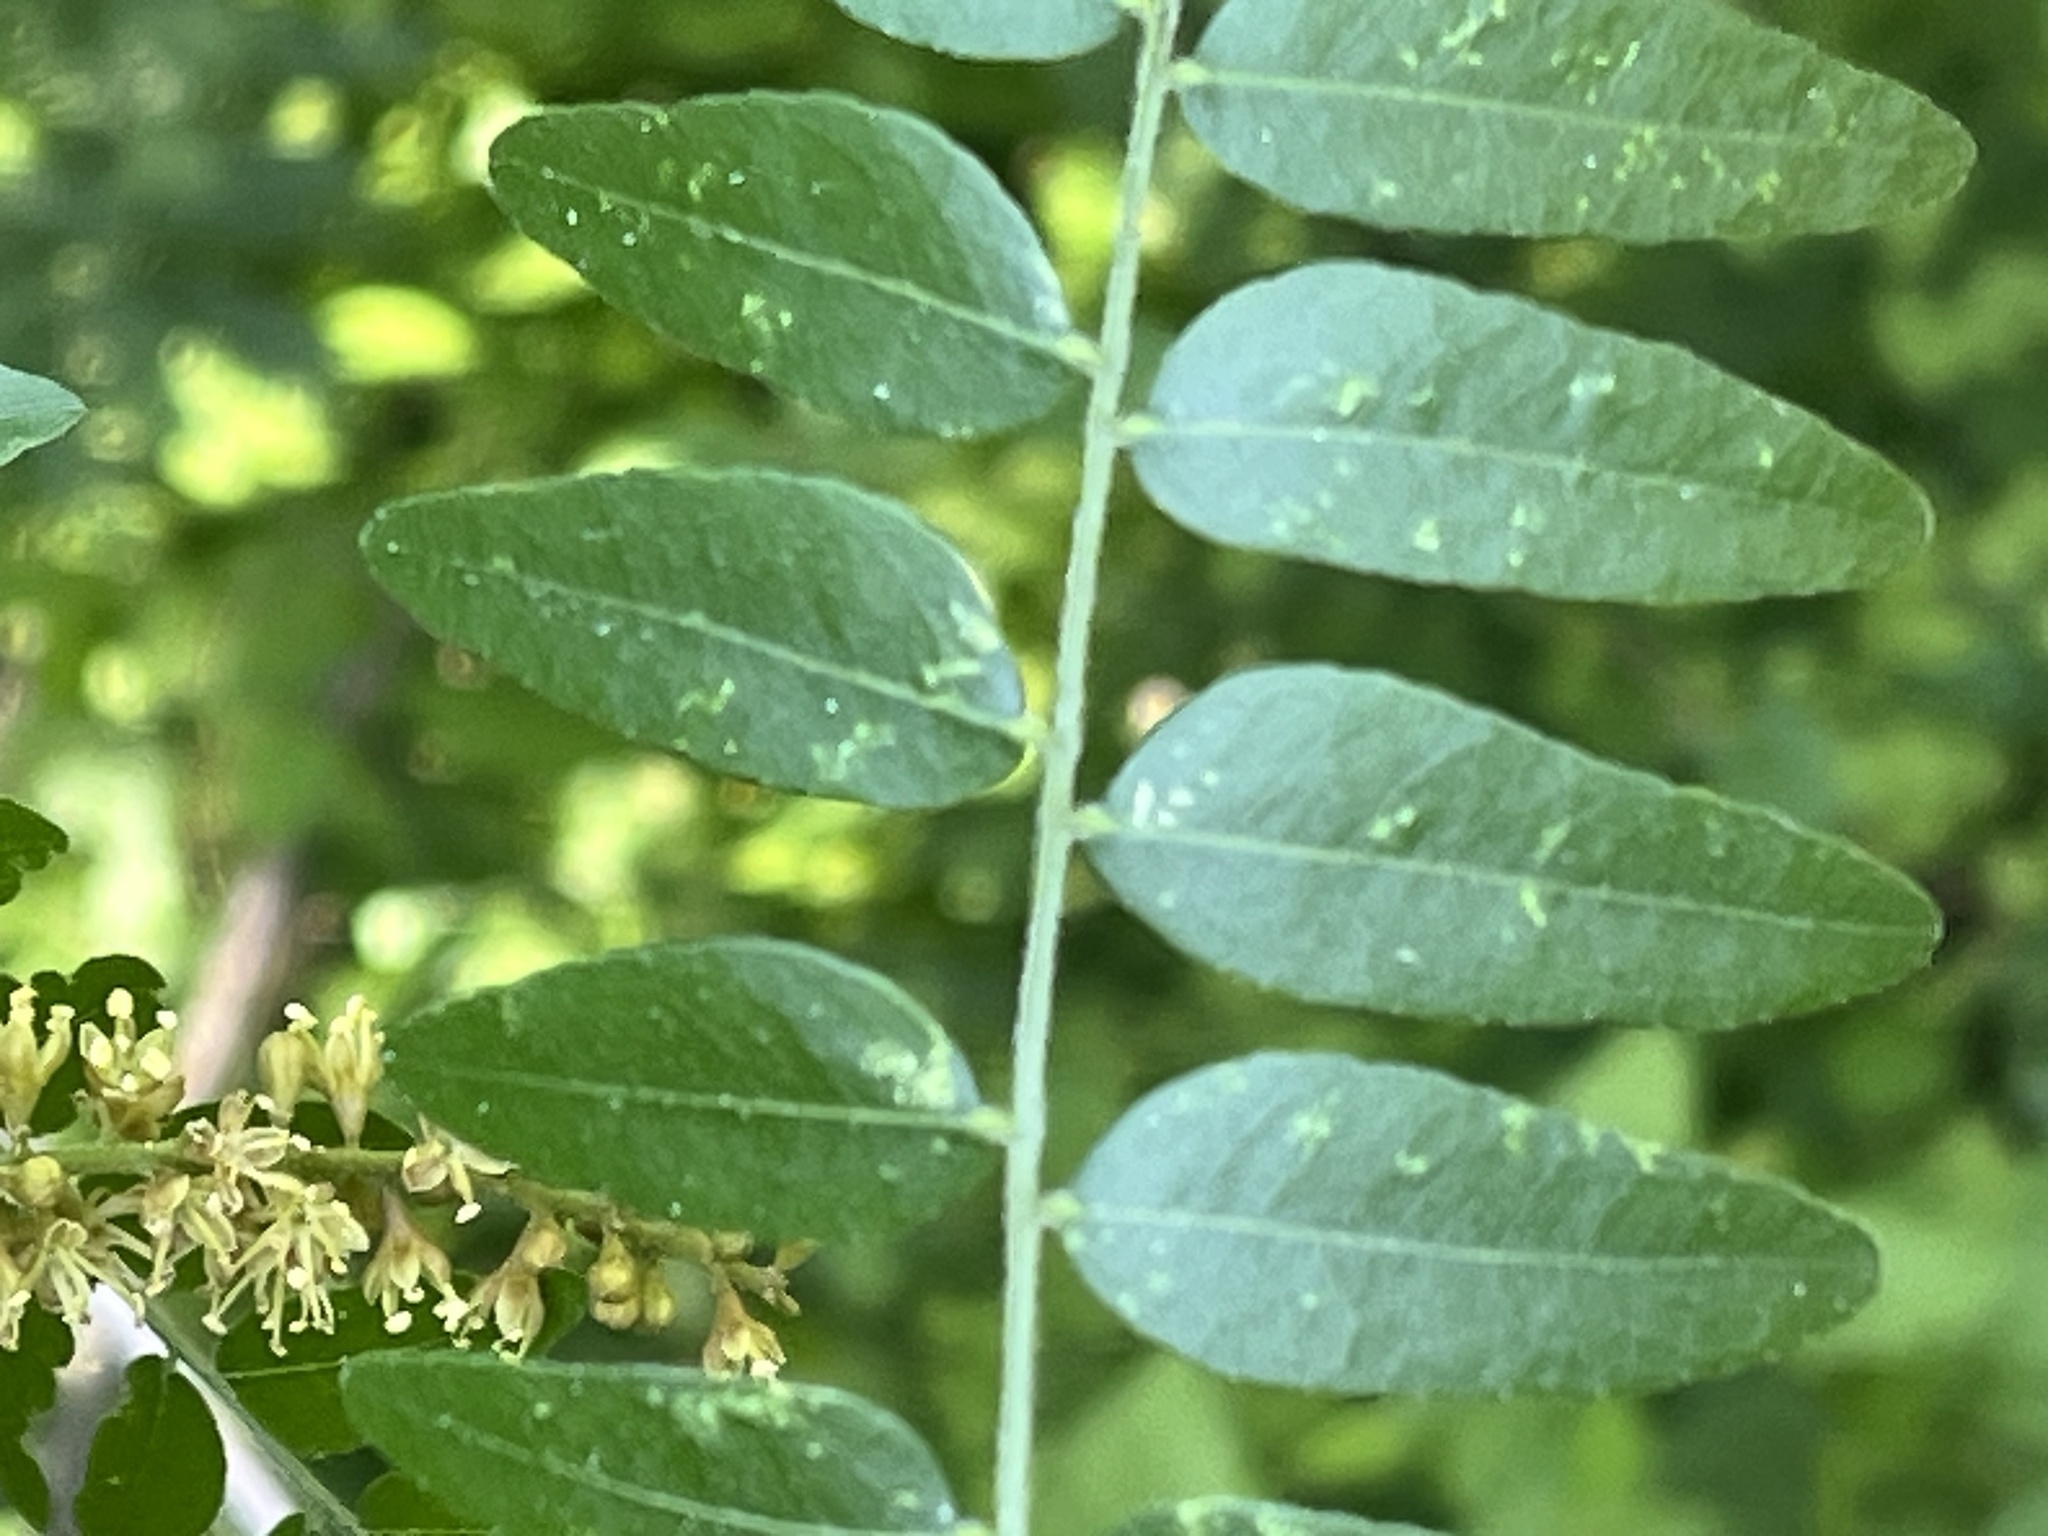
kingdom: Plantae
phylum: Tracheophyta
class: Magnoliopsida
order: Fabales
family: Fabaceae
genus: Gleditsia
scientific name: Gleditsia triacanthos
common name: Common honeylocust
